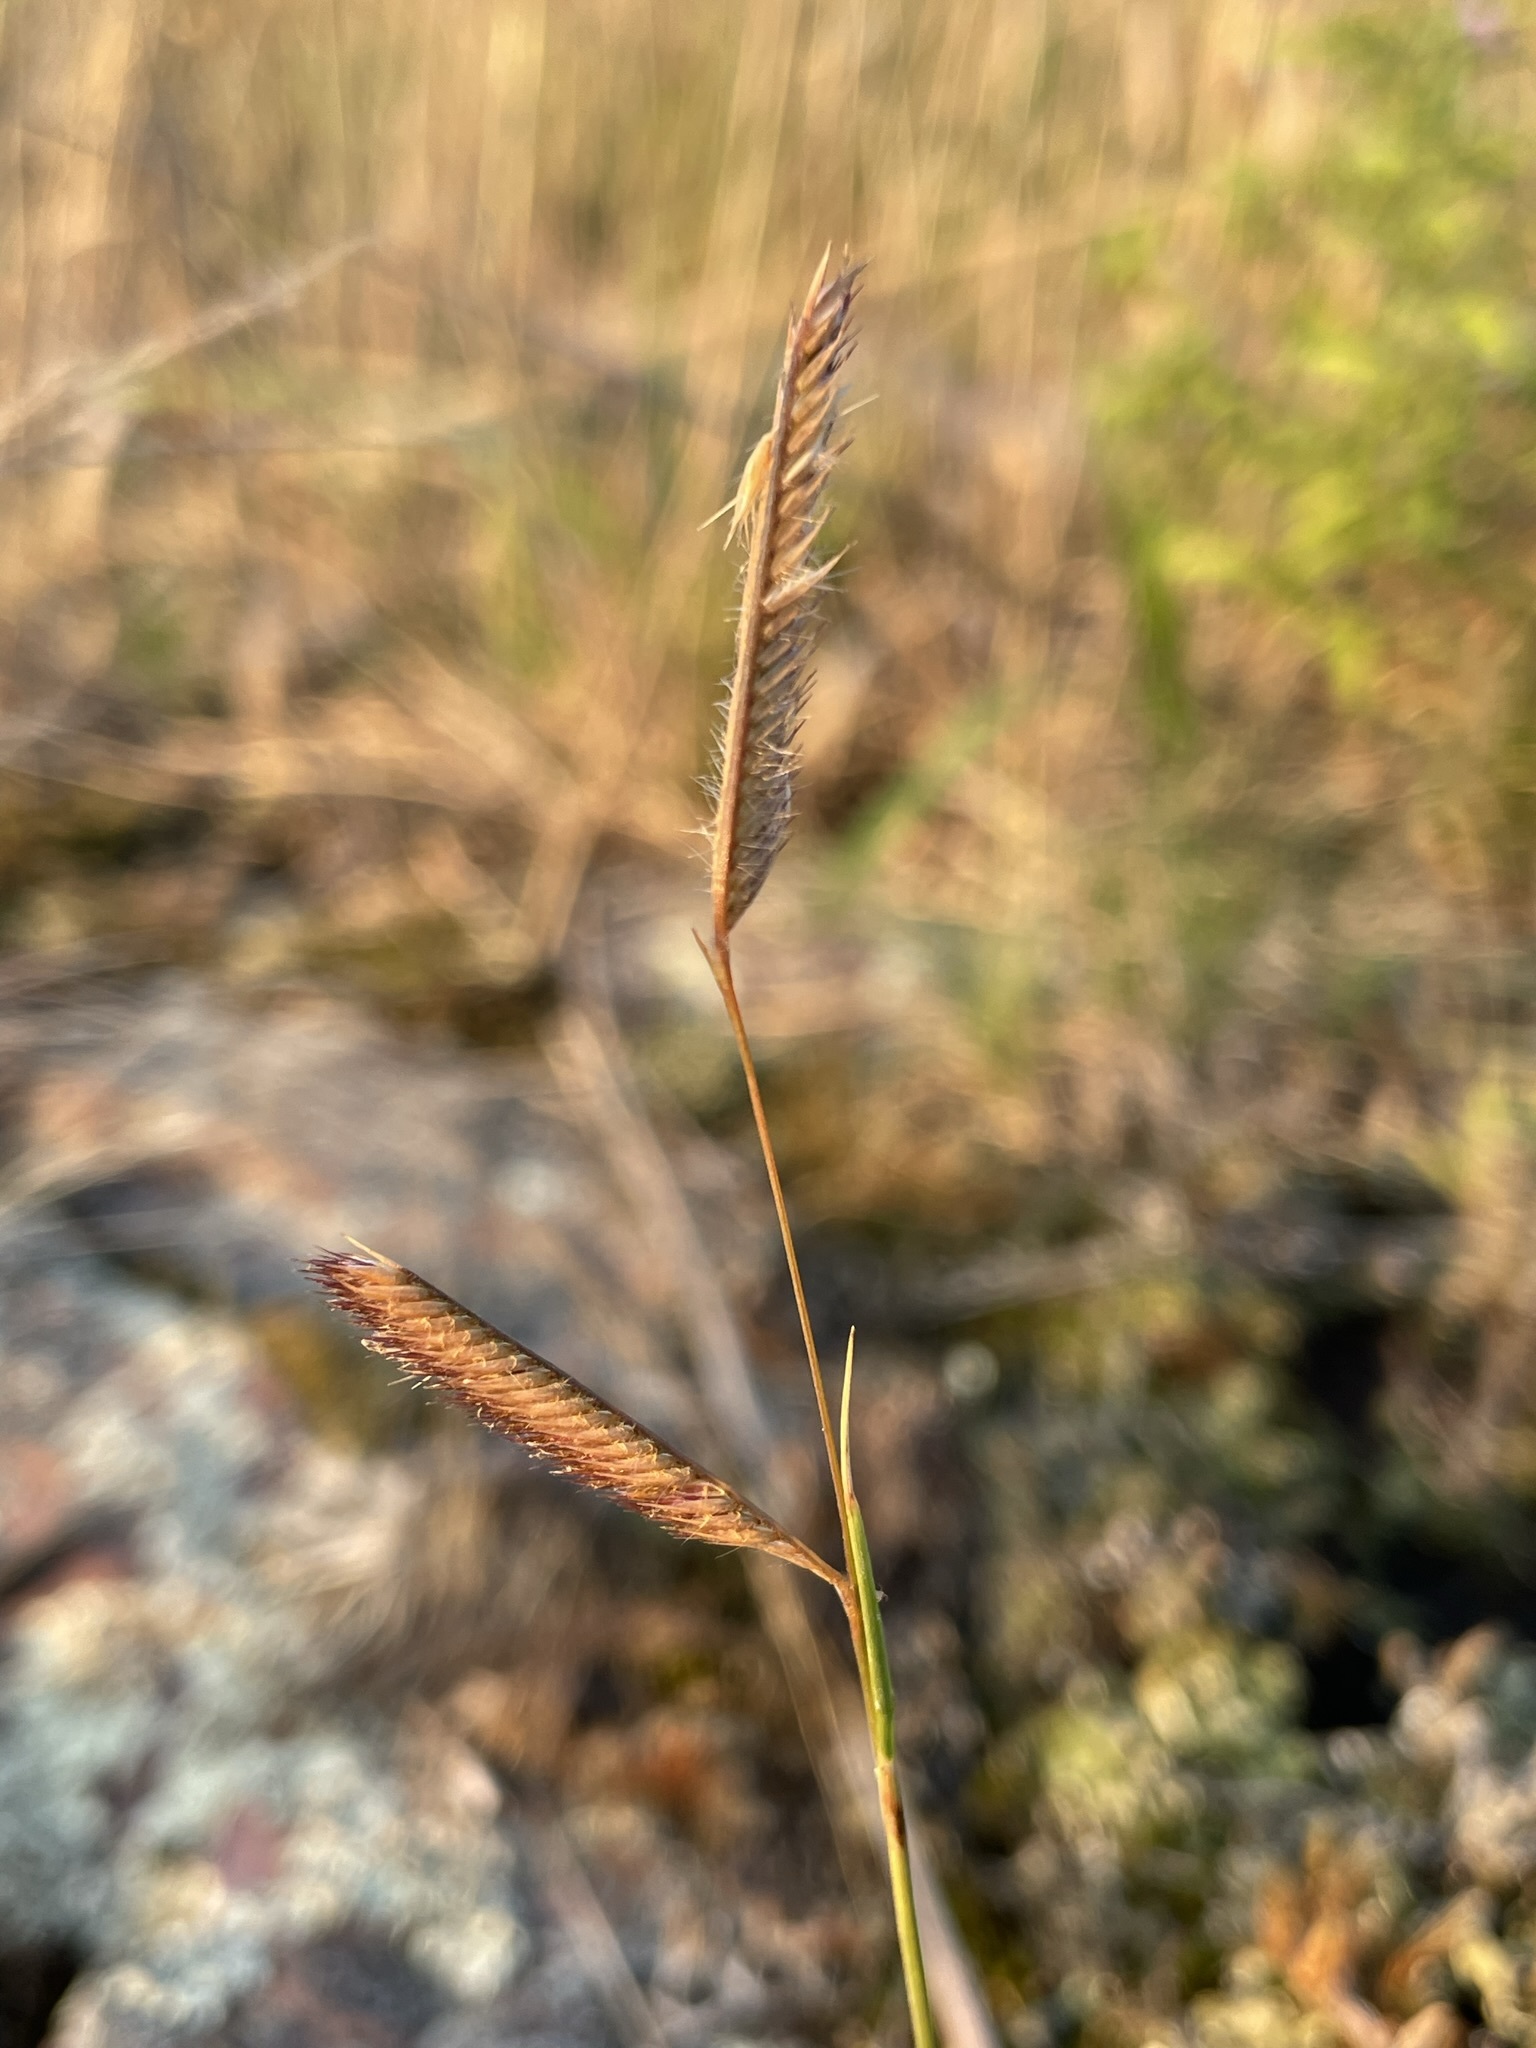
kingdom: Plantae
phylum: Tracheophyta
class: Liliopsida
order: Poales
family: Poaceae
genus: Bouteloua
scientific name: Bouteloua gracilis
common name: Blue grama
